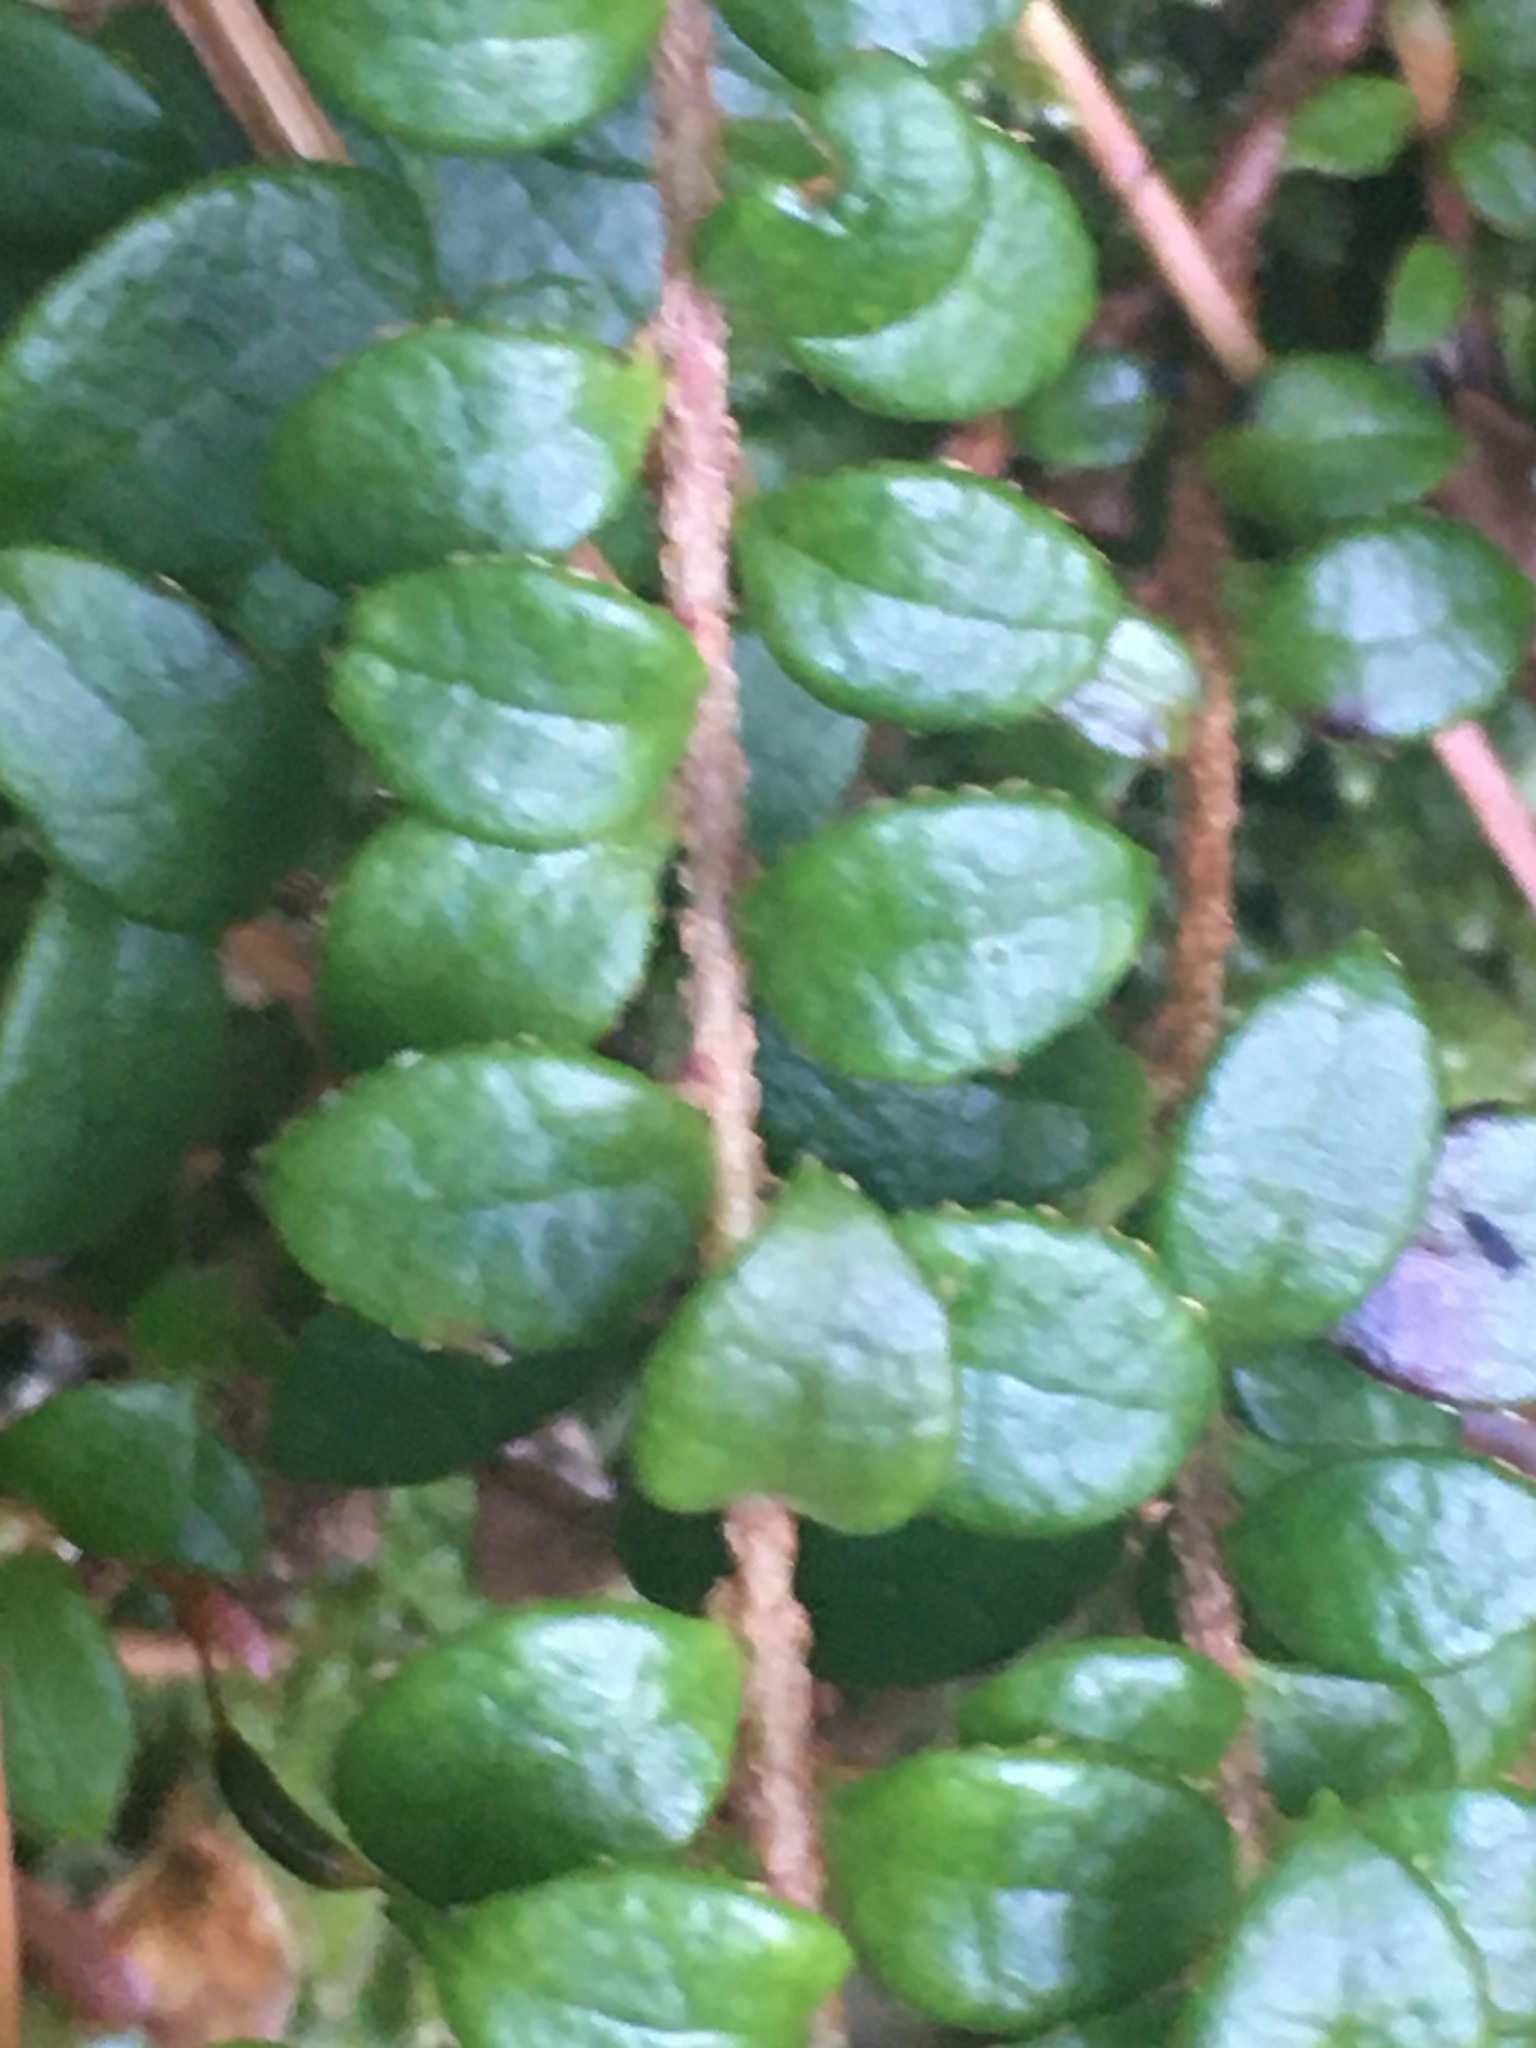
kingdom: Plantae
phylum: Tracheophyta
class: Magnoliopsida
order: Ericales
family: Ericaceae
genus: Gaultheria
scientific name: Gaultheria hispidula
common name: Cancer wintergreen
